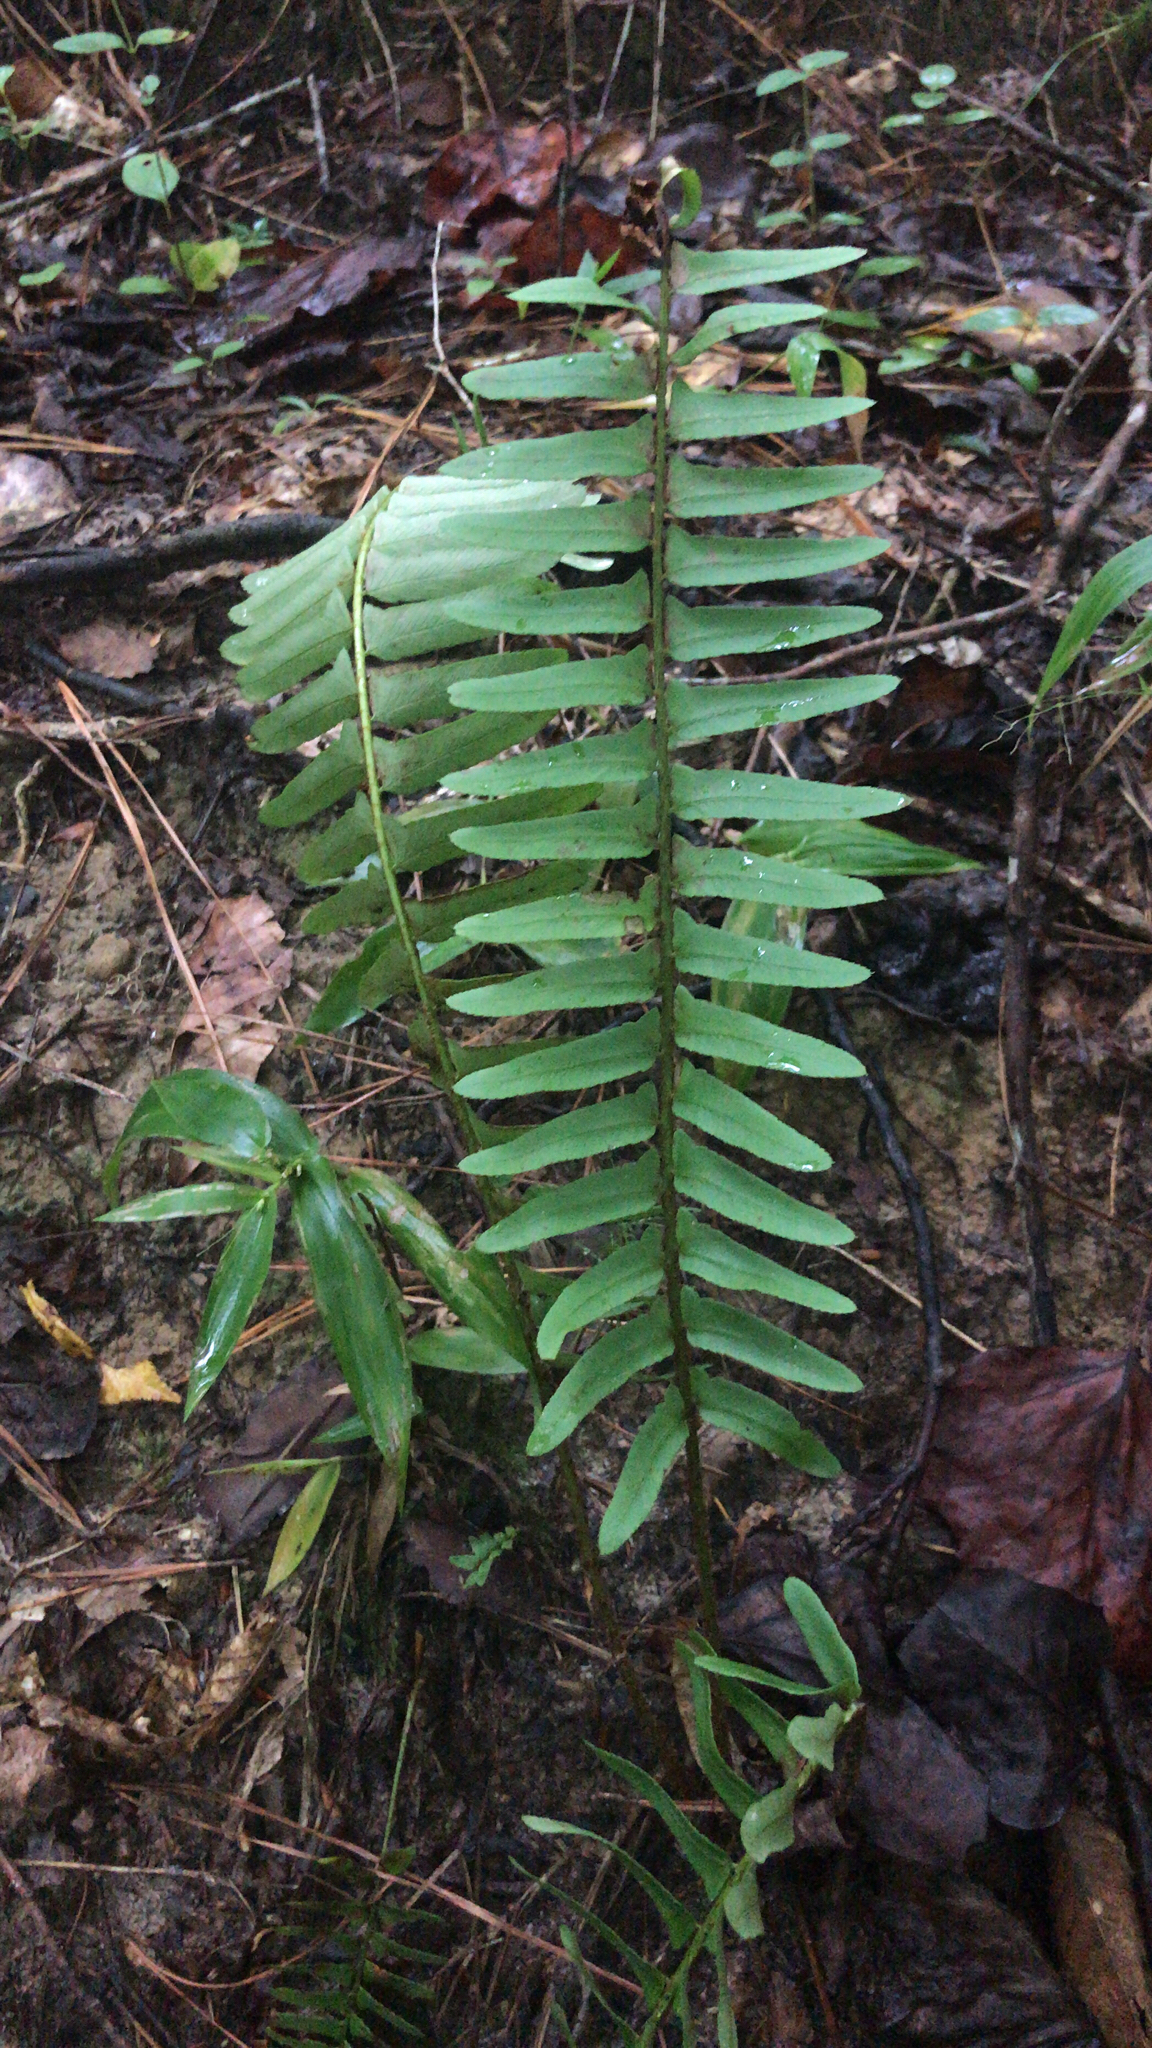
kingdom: Plantae
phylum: Tracheophyta
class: Polypodiopsida
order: Polypodiales
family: Dryopteridaceae
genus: Polystichum
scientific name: Polystichum acrostichoides
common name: Christmas fern
